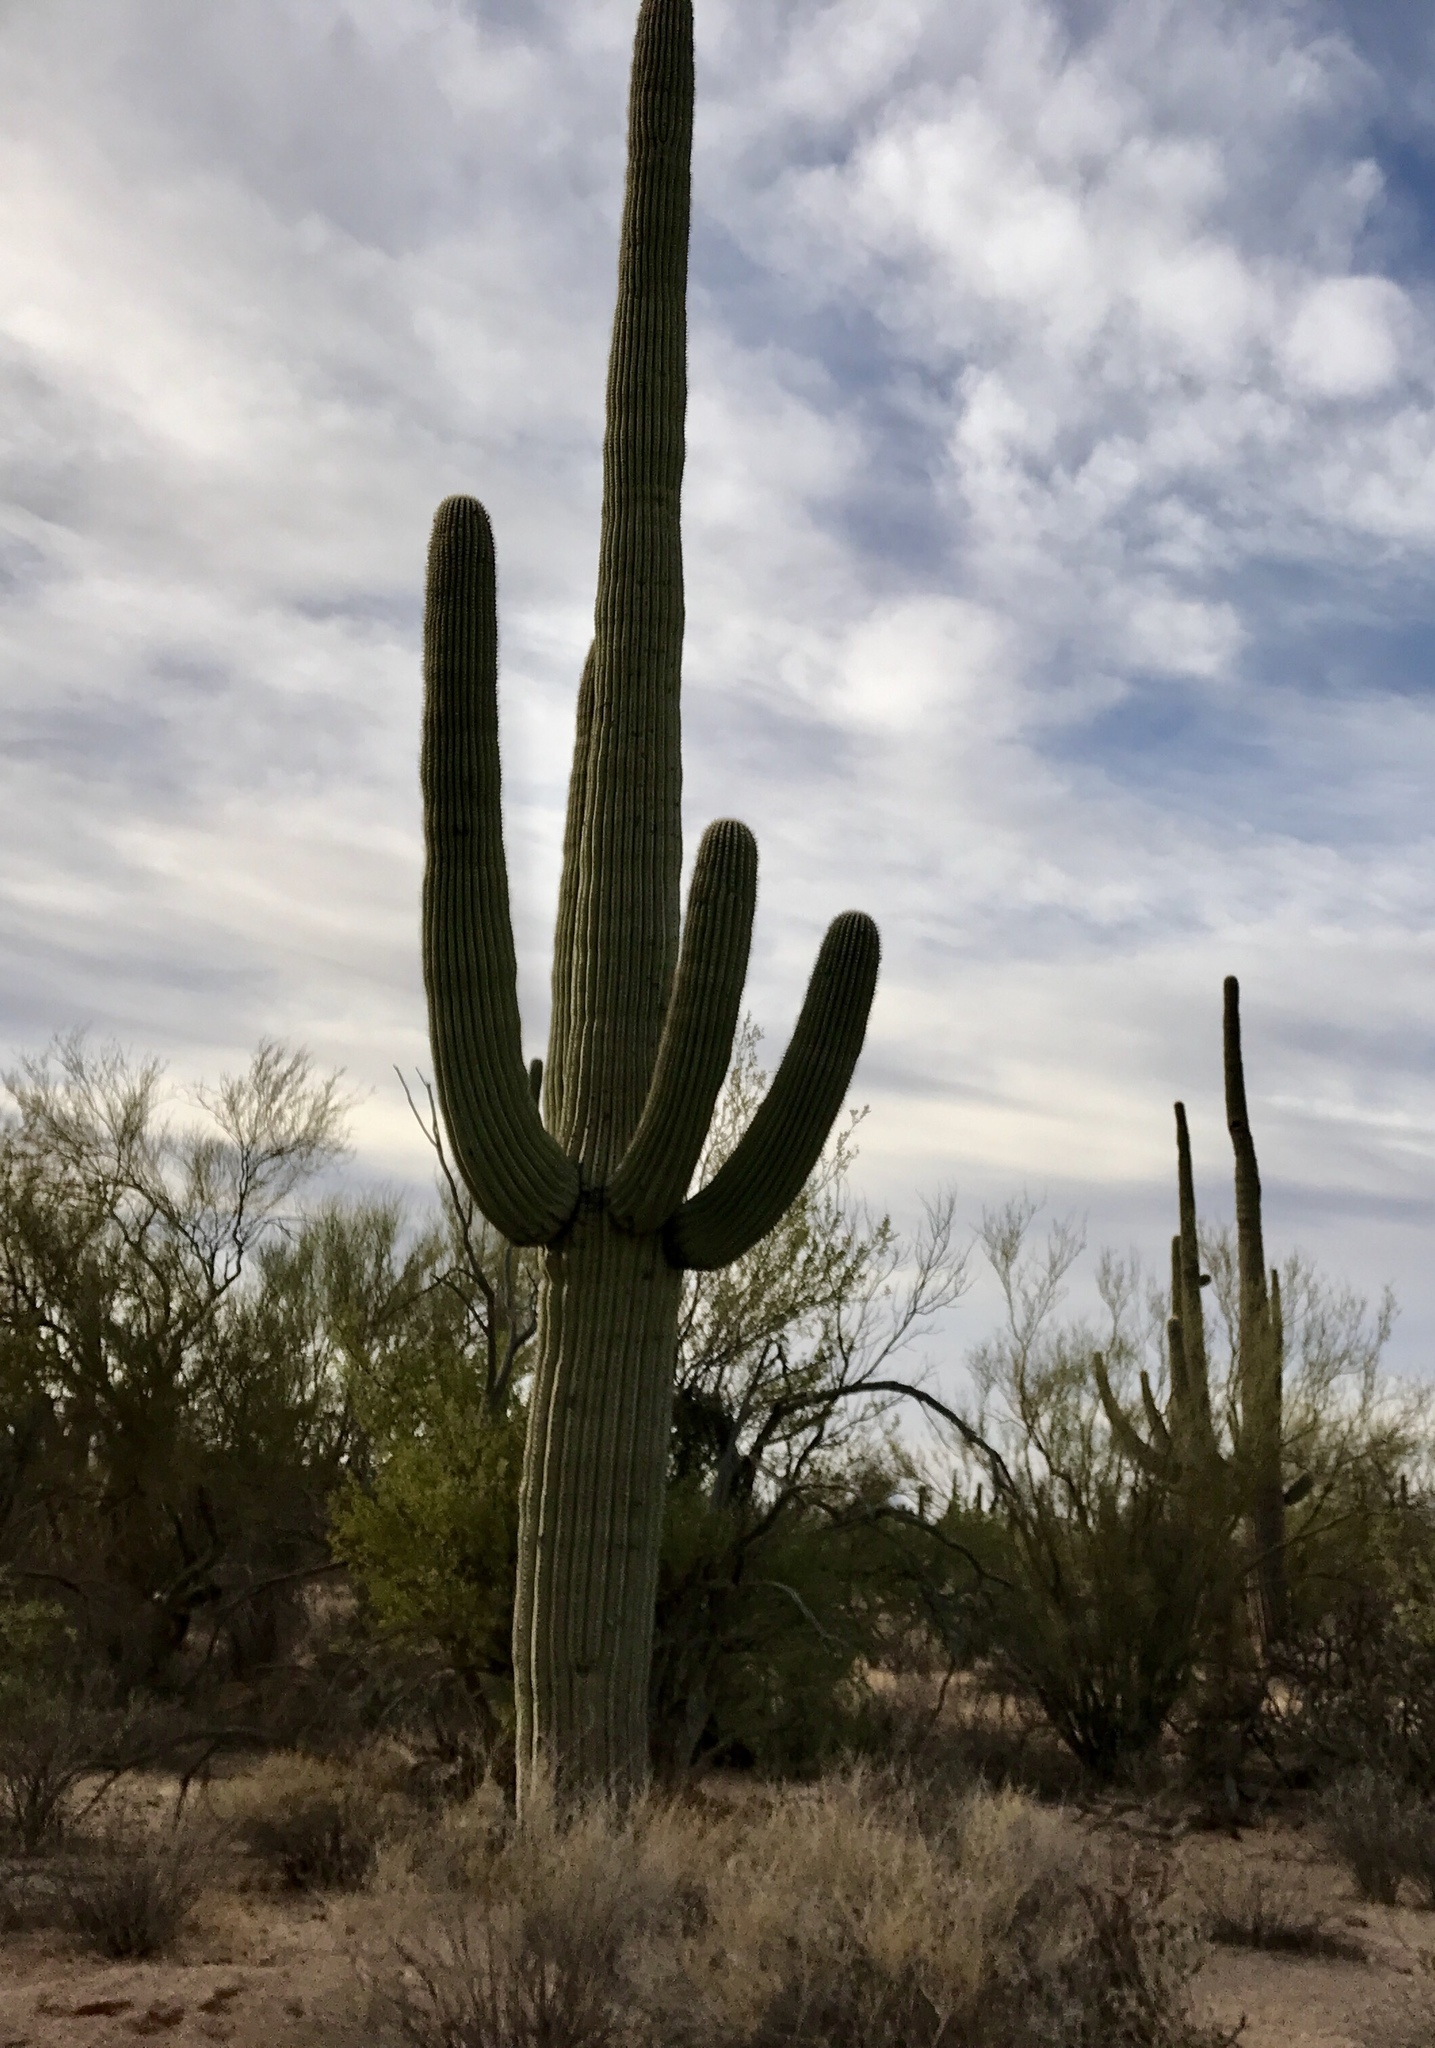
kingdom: Plantae
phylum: Tracheophyta
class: Magnoliopsida
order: Caryophyllales
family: Cactaceae
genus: Carnegiea
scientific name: Carnegiea gigantea
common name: Saguaro
